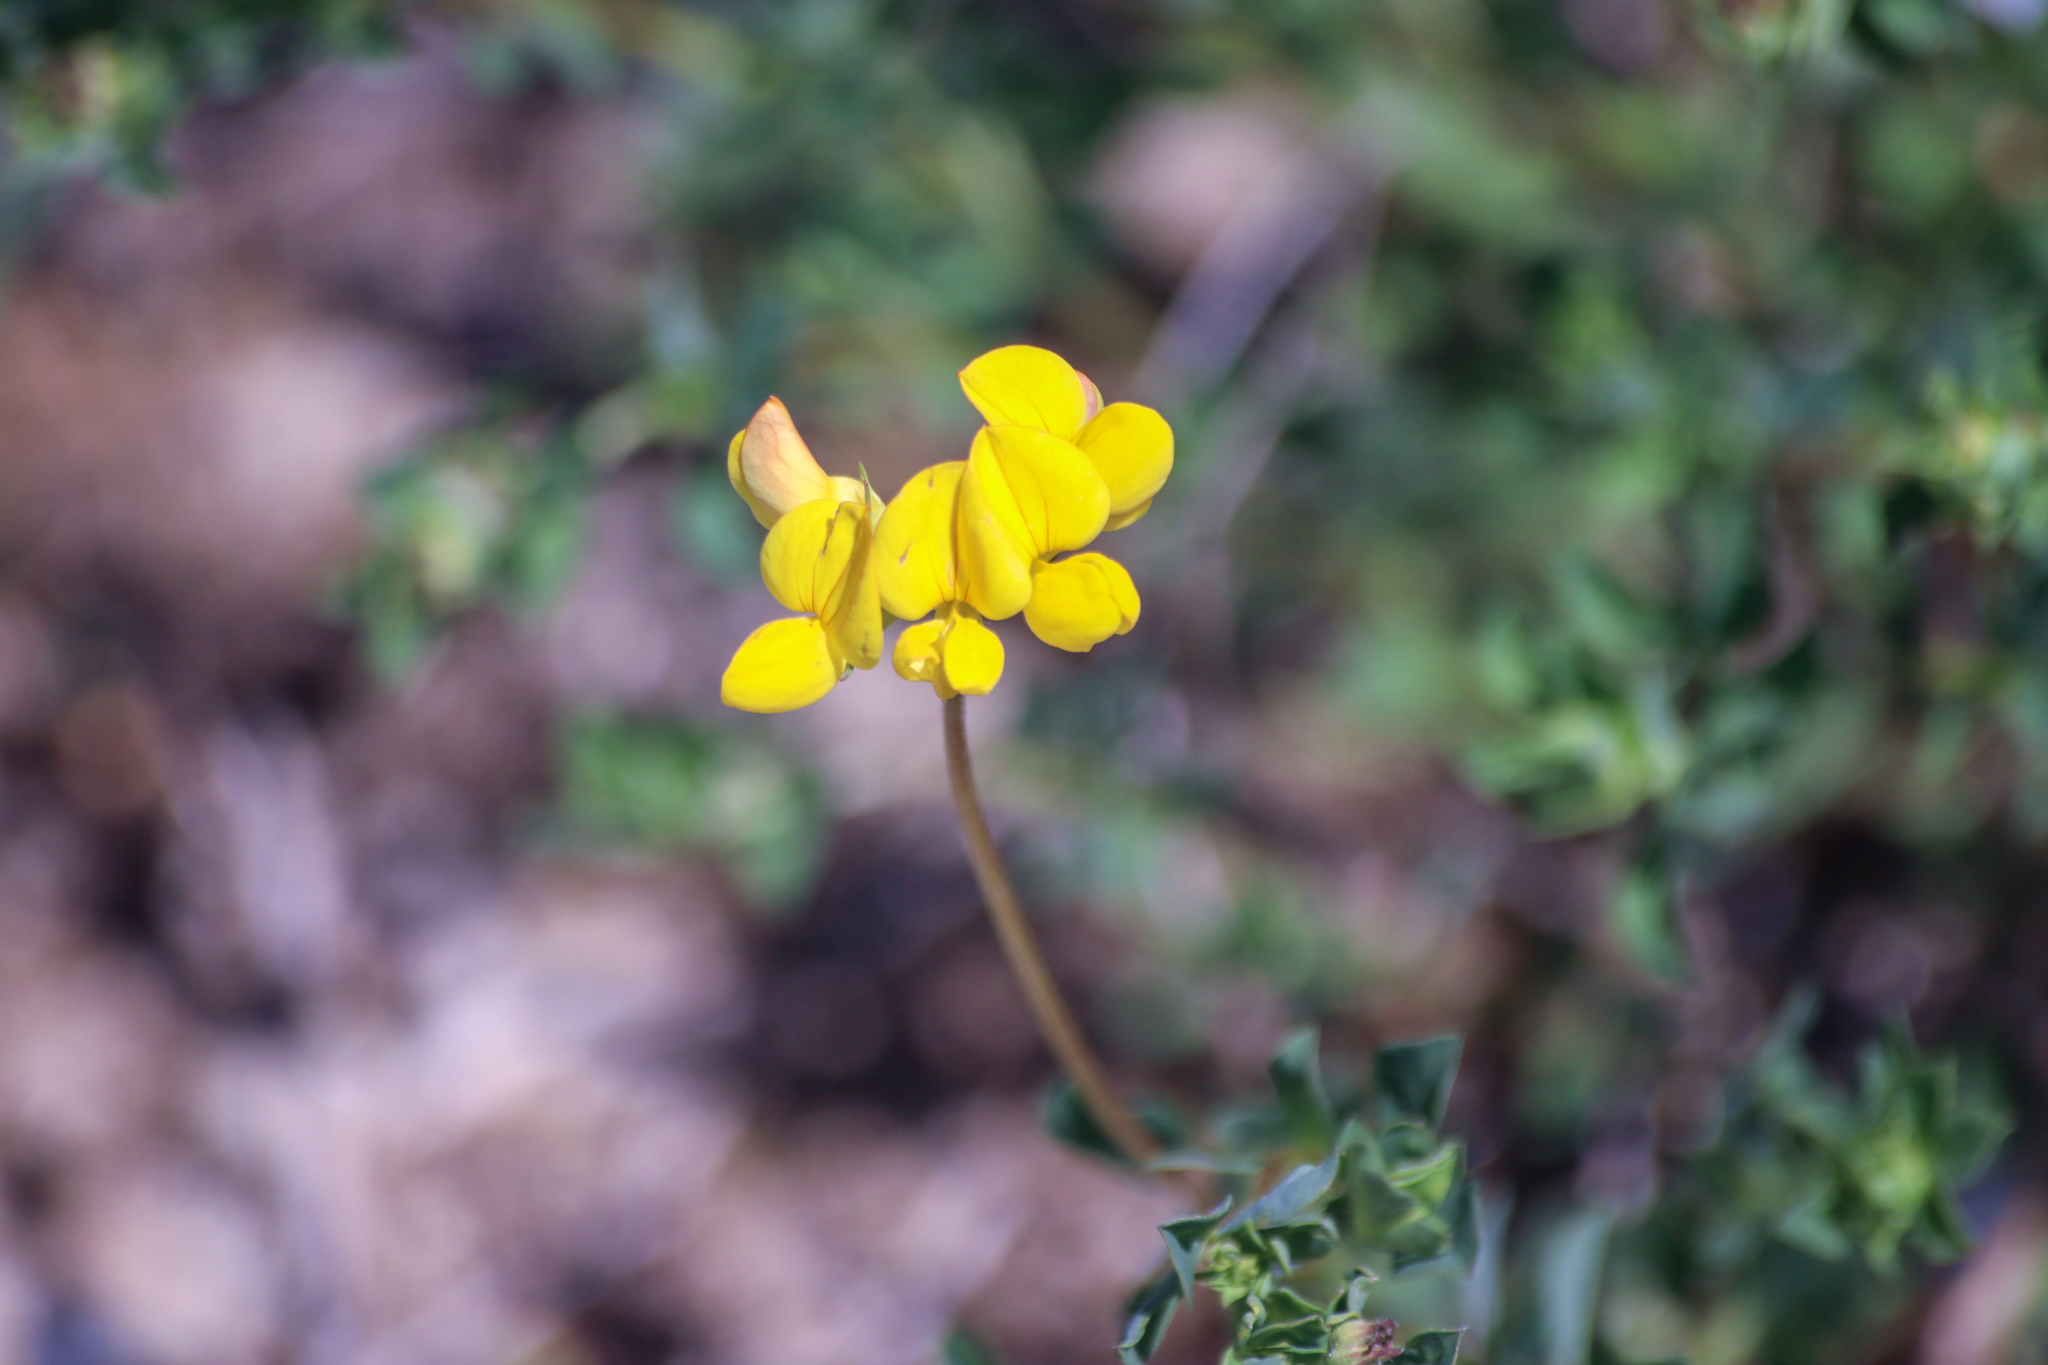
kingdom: Plantae
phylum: Tracheophyta
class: Magnoliopsida
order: Fabales
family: Fabaceae
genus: Lotus
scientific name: Lotus corniculatus
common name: Common bird's-foot-trefoil
